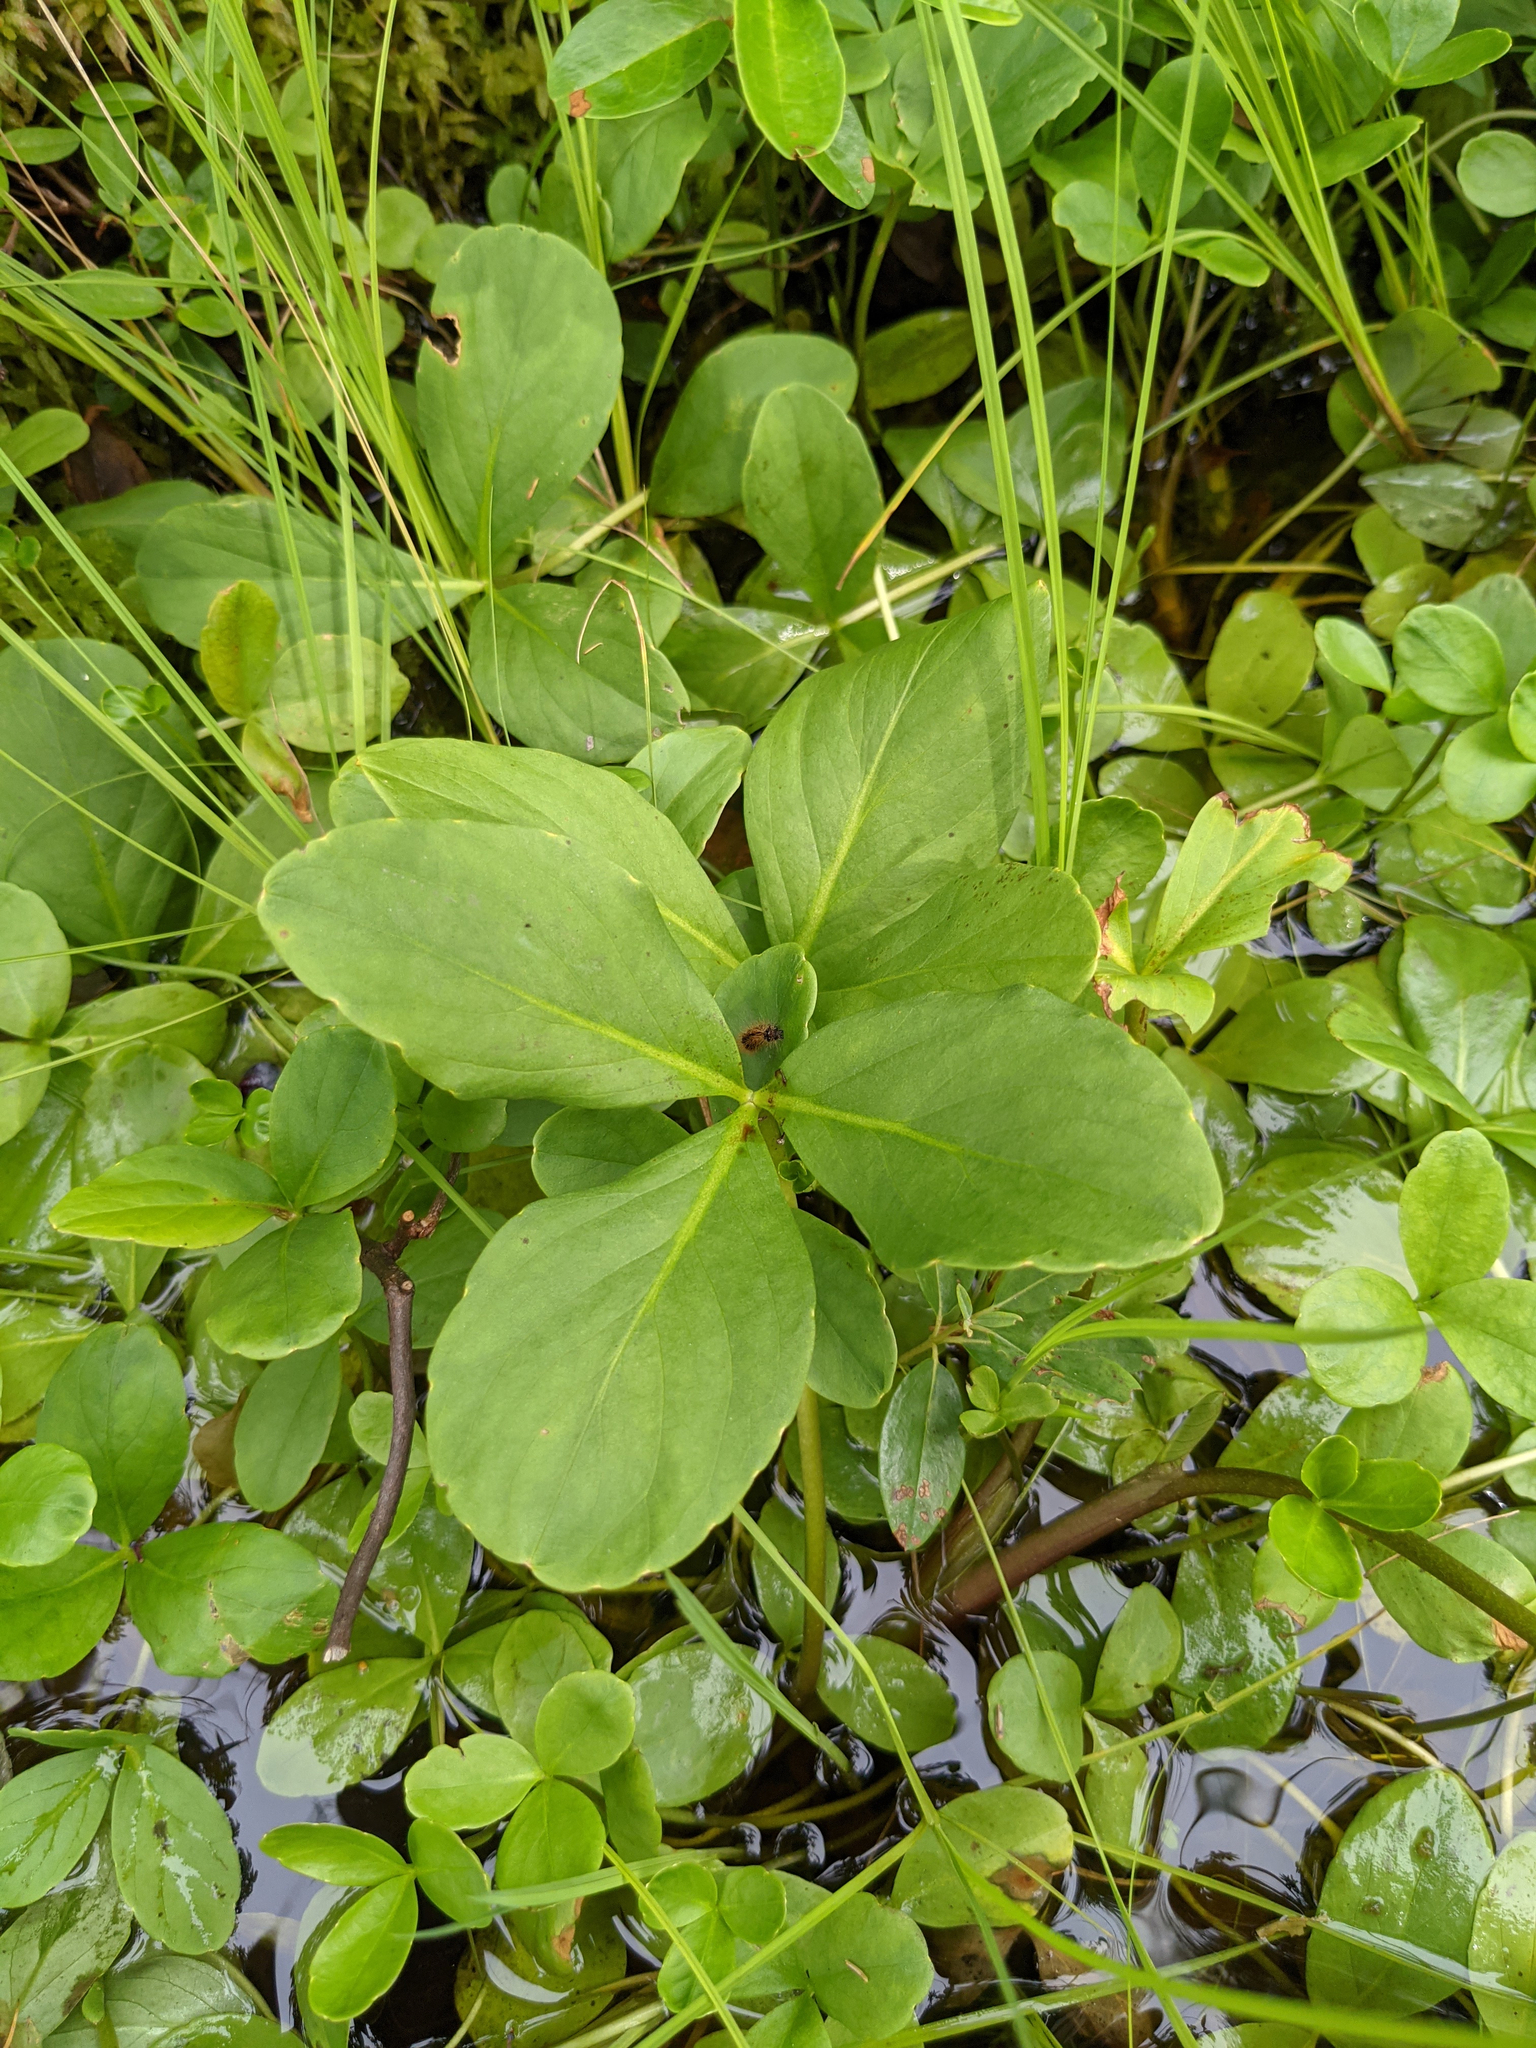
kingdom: Plantae
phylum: Tracheophyta
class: Magnoliopsida
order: Asterales
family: Menyanthaceae
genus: Menyanthes
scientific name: Menyanthes trifoliata
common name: Bogbean
